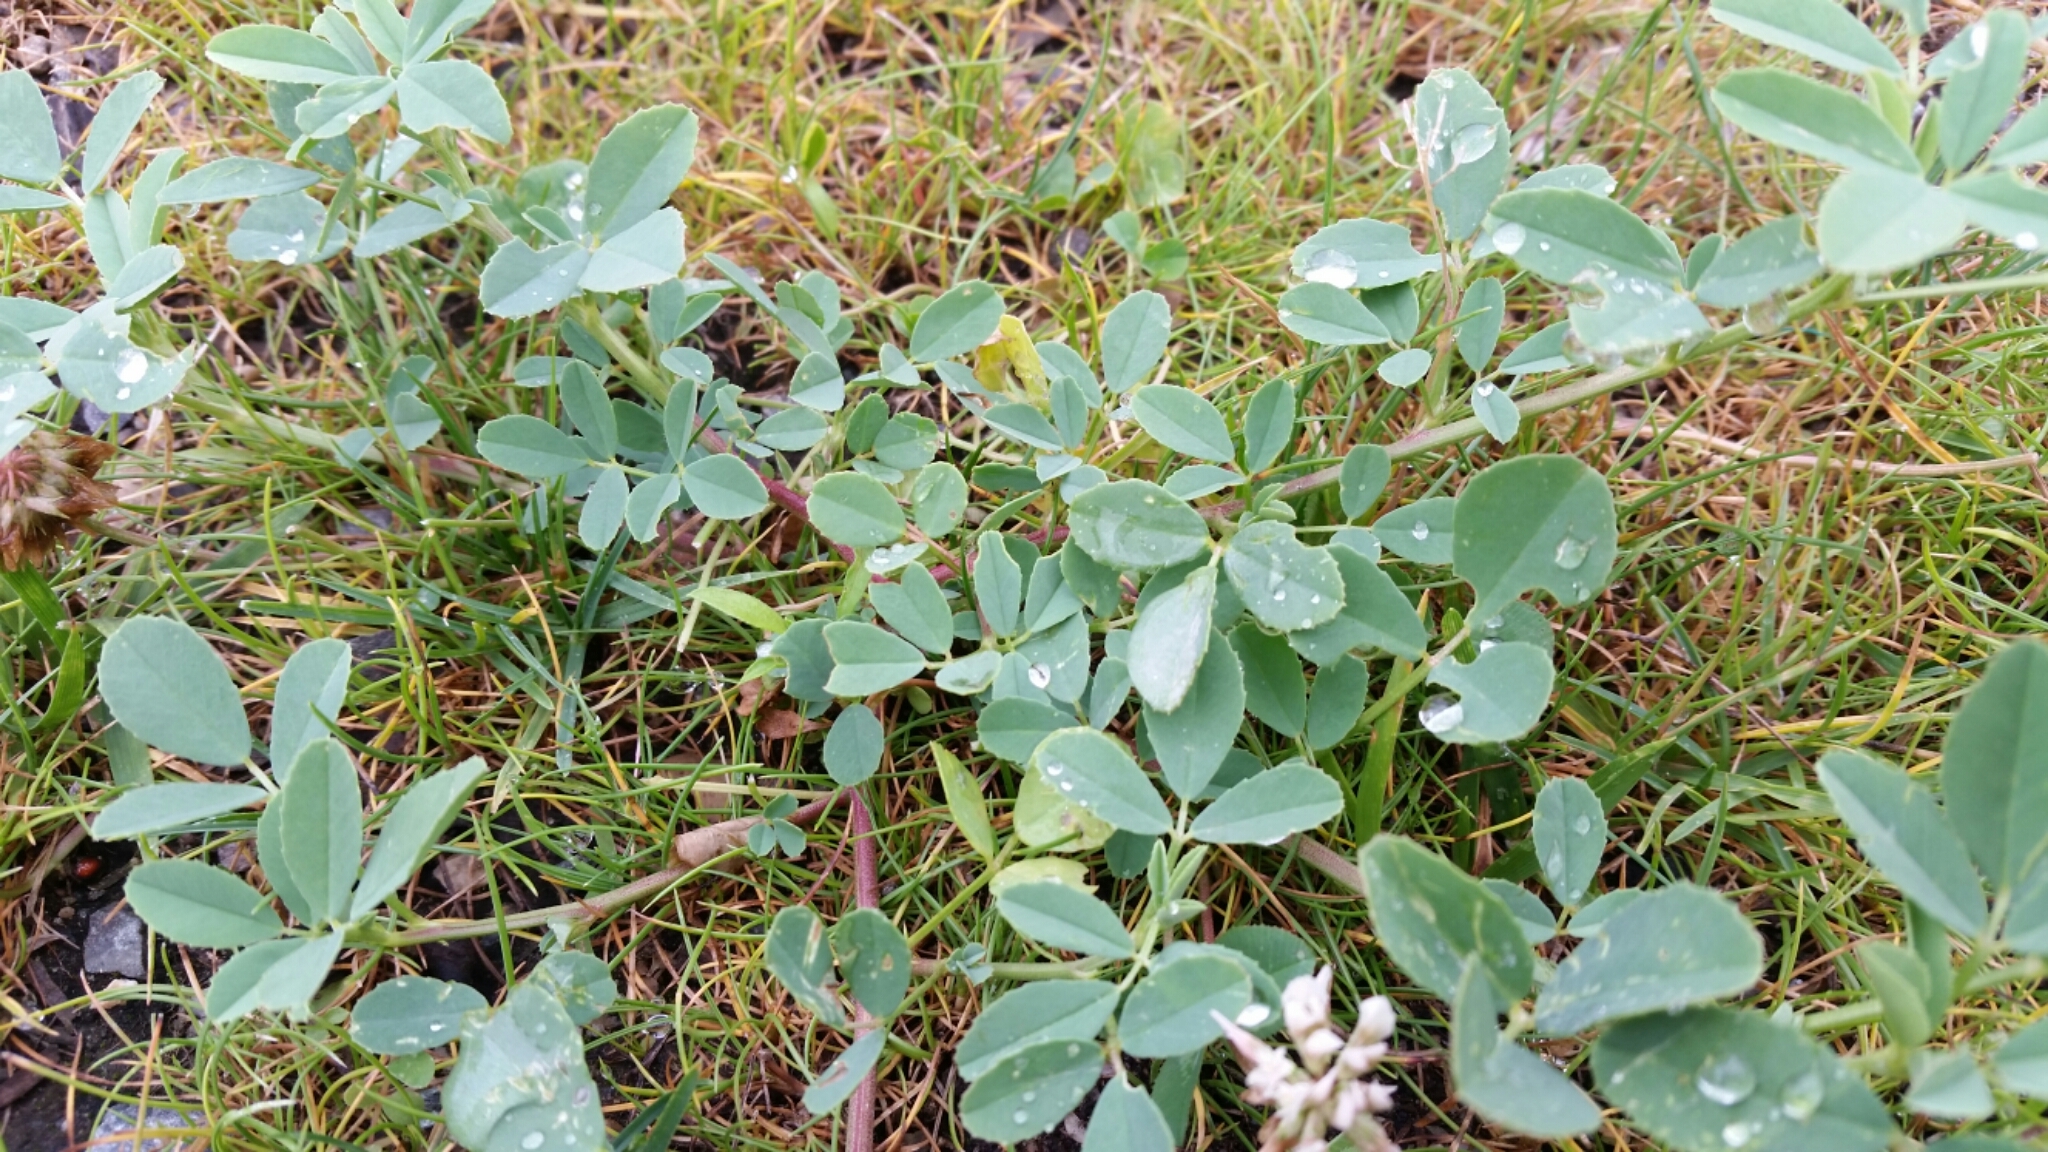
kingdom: Plantae
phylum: Tracheophyta
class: Magnoliopsida
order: Fabales
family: Fabaceae
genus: Melilotus
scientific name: Melilotus albus
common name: White melilot
